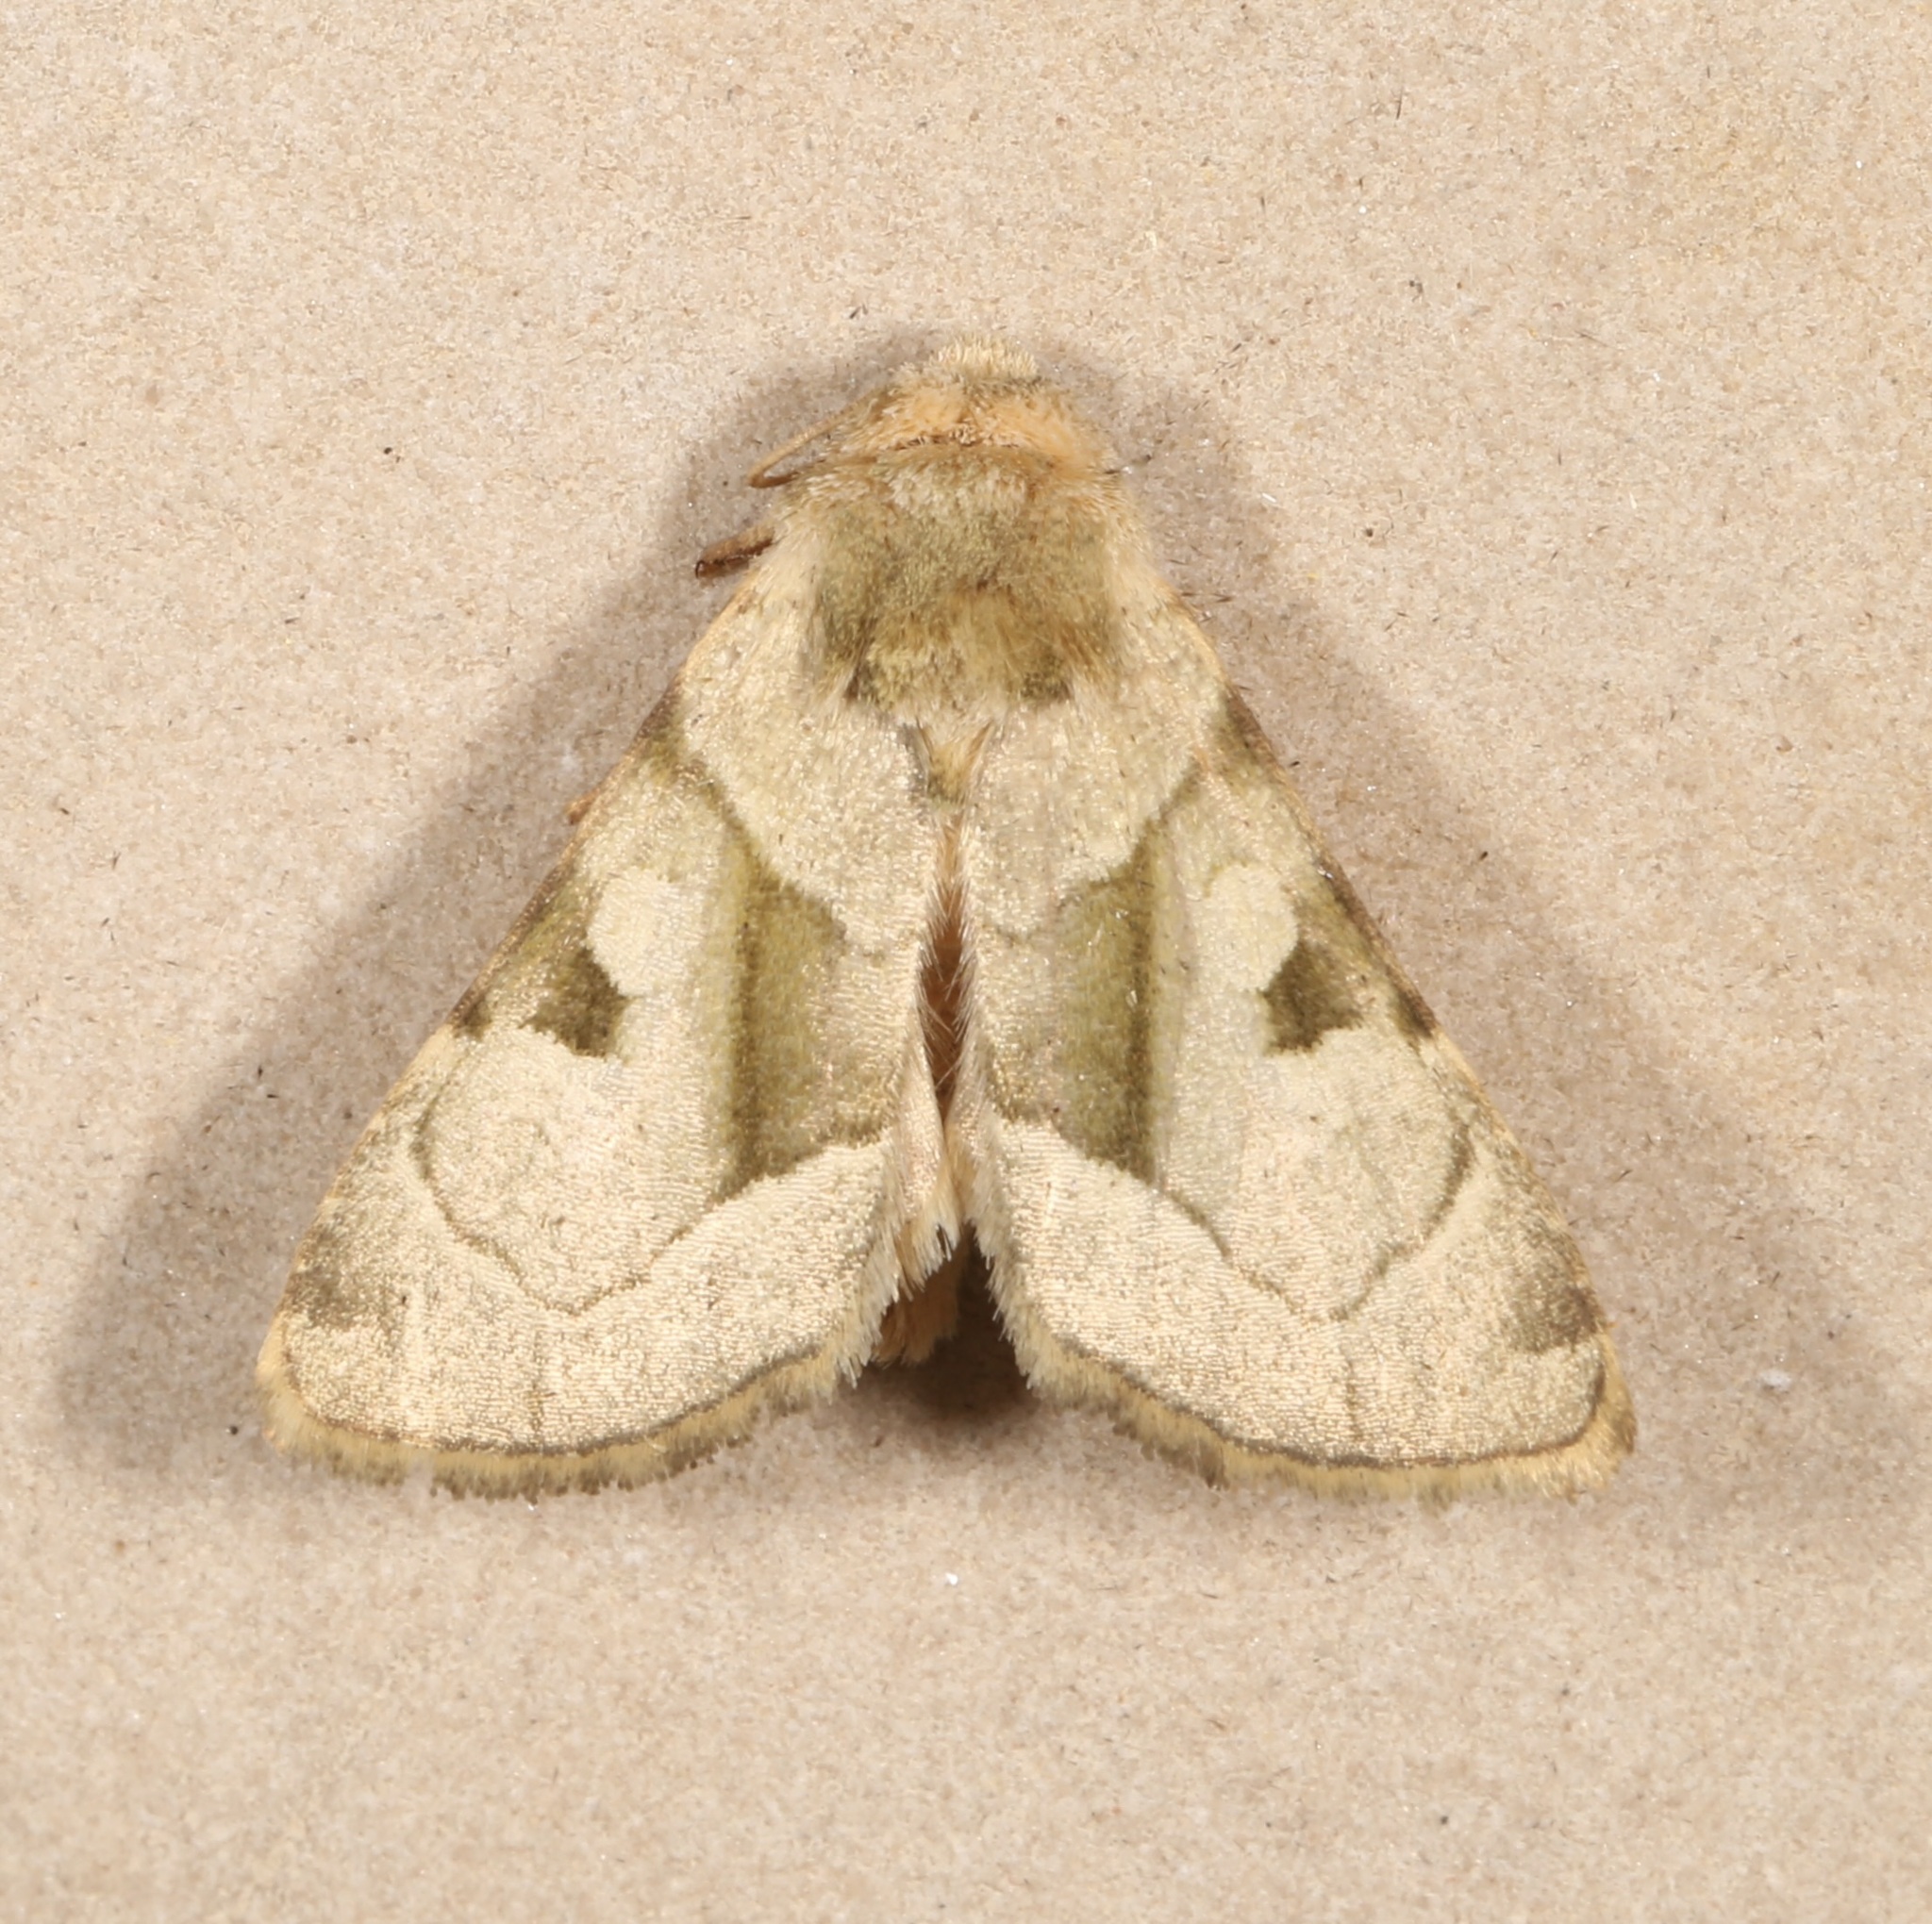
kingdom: Animalia
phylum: Arthropoda
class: Insecta
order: Lepidoptera
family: Noctuidae
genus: Oslaria
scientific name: Oslaria viridifera
